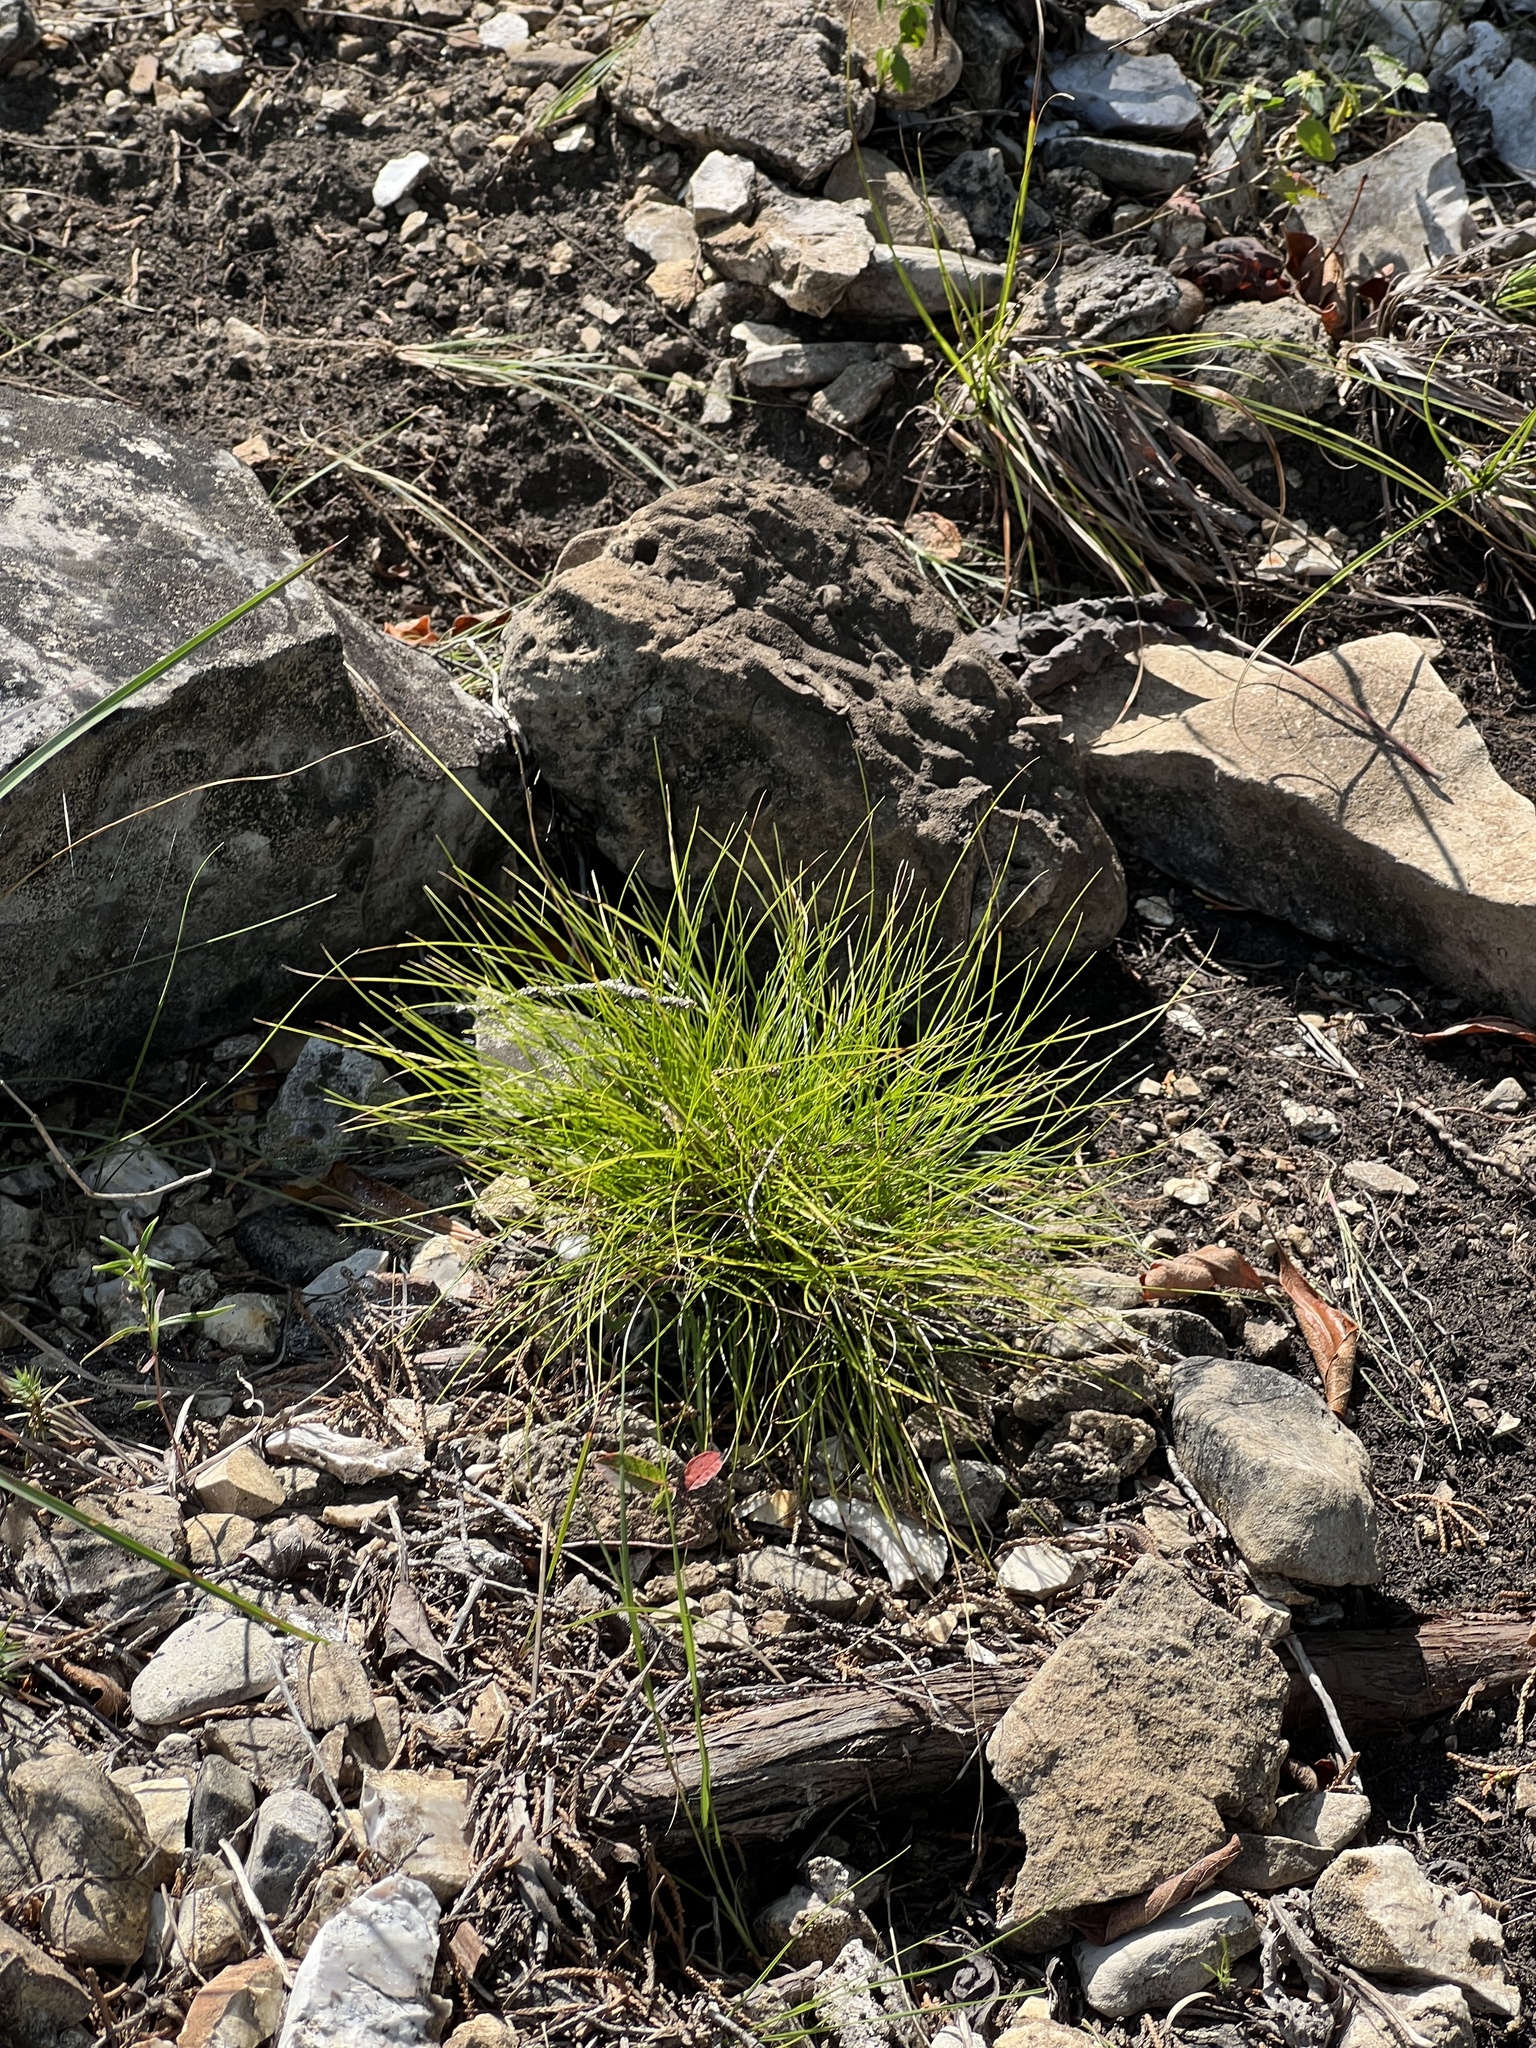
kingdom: Plantae
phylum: Tracheophyta
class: Liliopsida
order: Poales
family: Cyperaceae
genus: Carex
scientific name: Carex eburnea
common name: Bristle-leaved sedge
